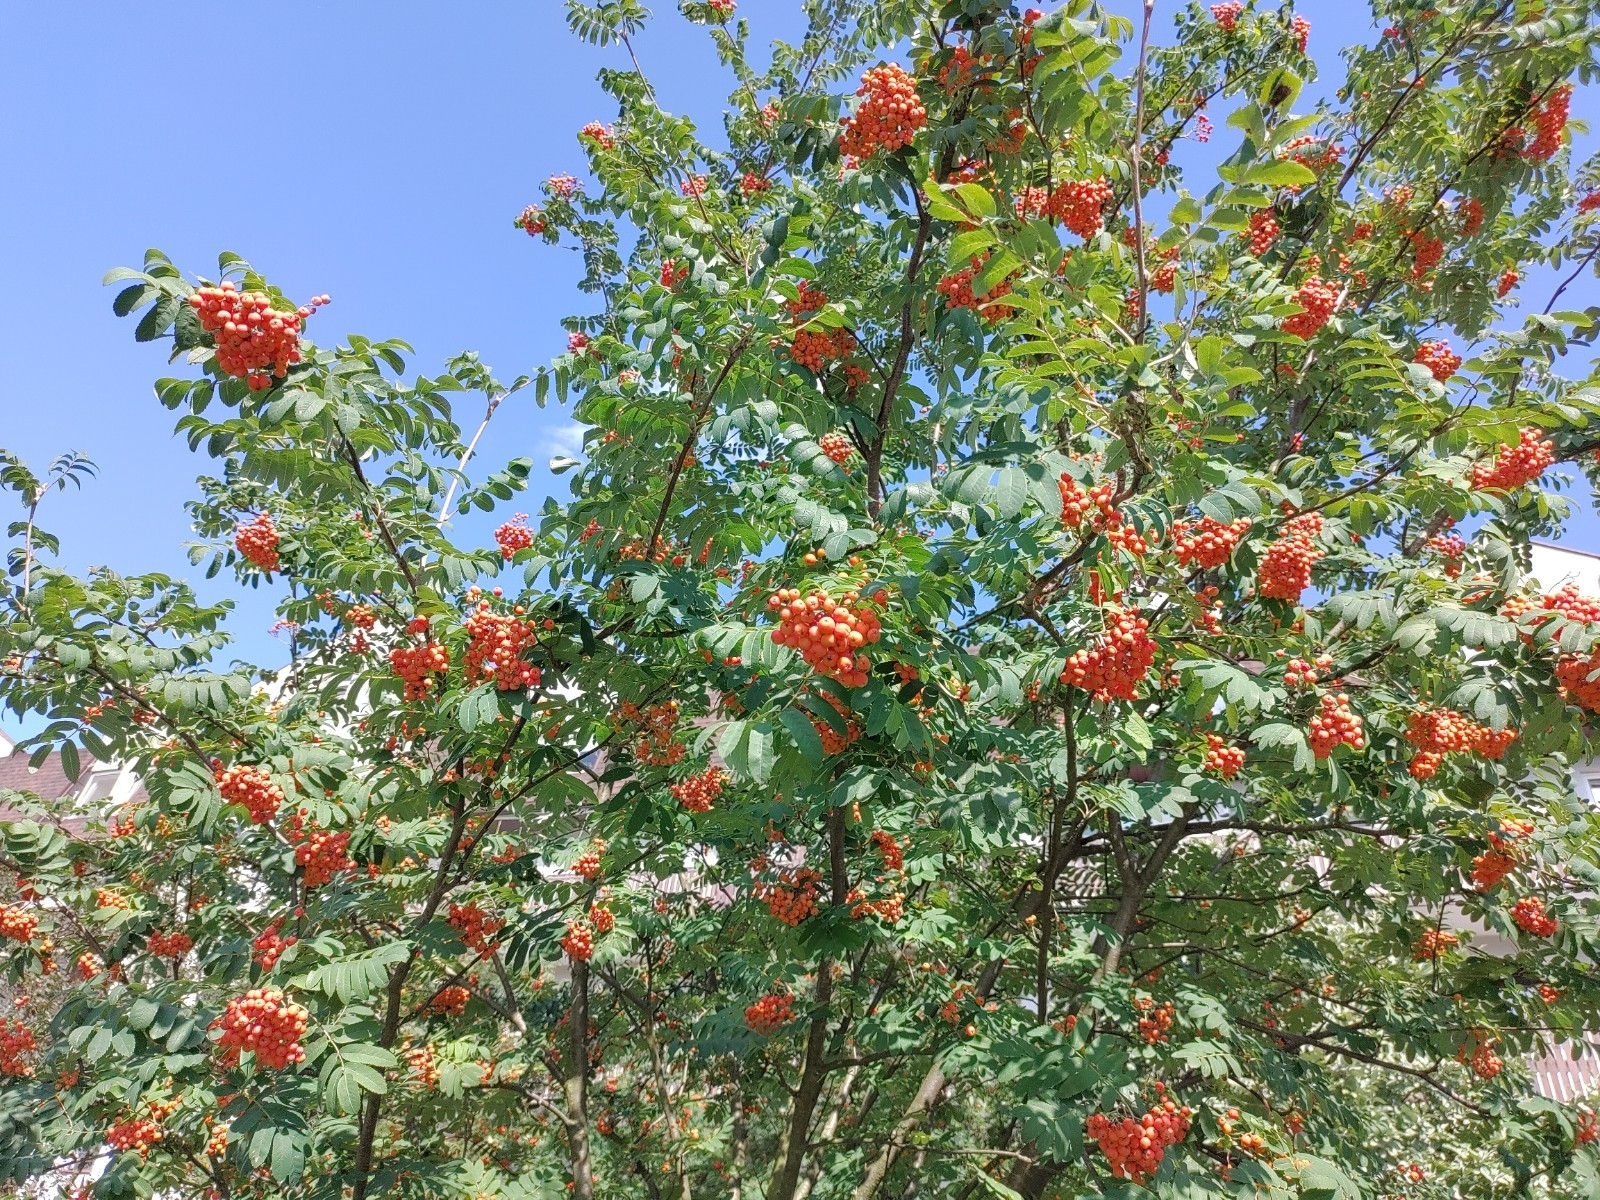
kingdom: Plantae
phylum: Tracheophyta
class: Magnoliopsida
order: Rosales
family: Rosaceae
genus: Sorbus
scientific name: Sorbus aucuparia
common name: Rowan
